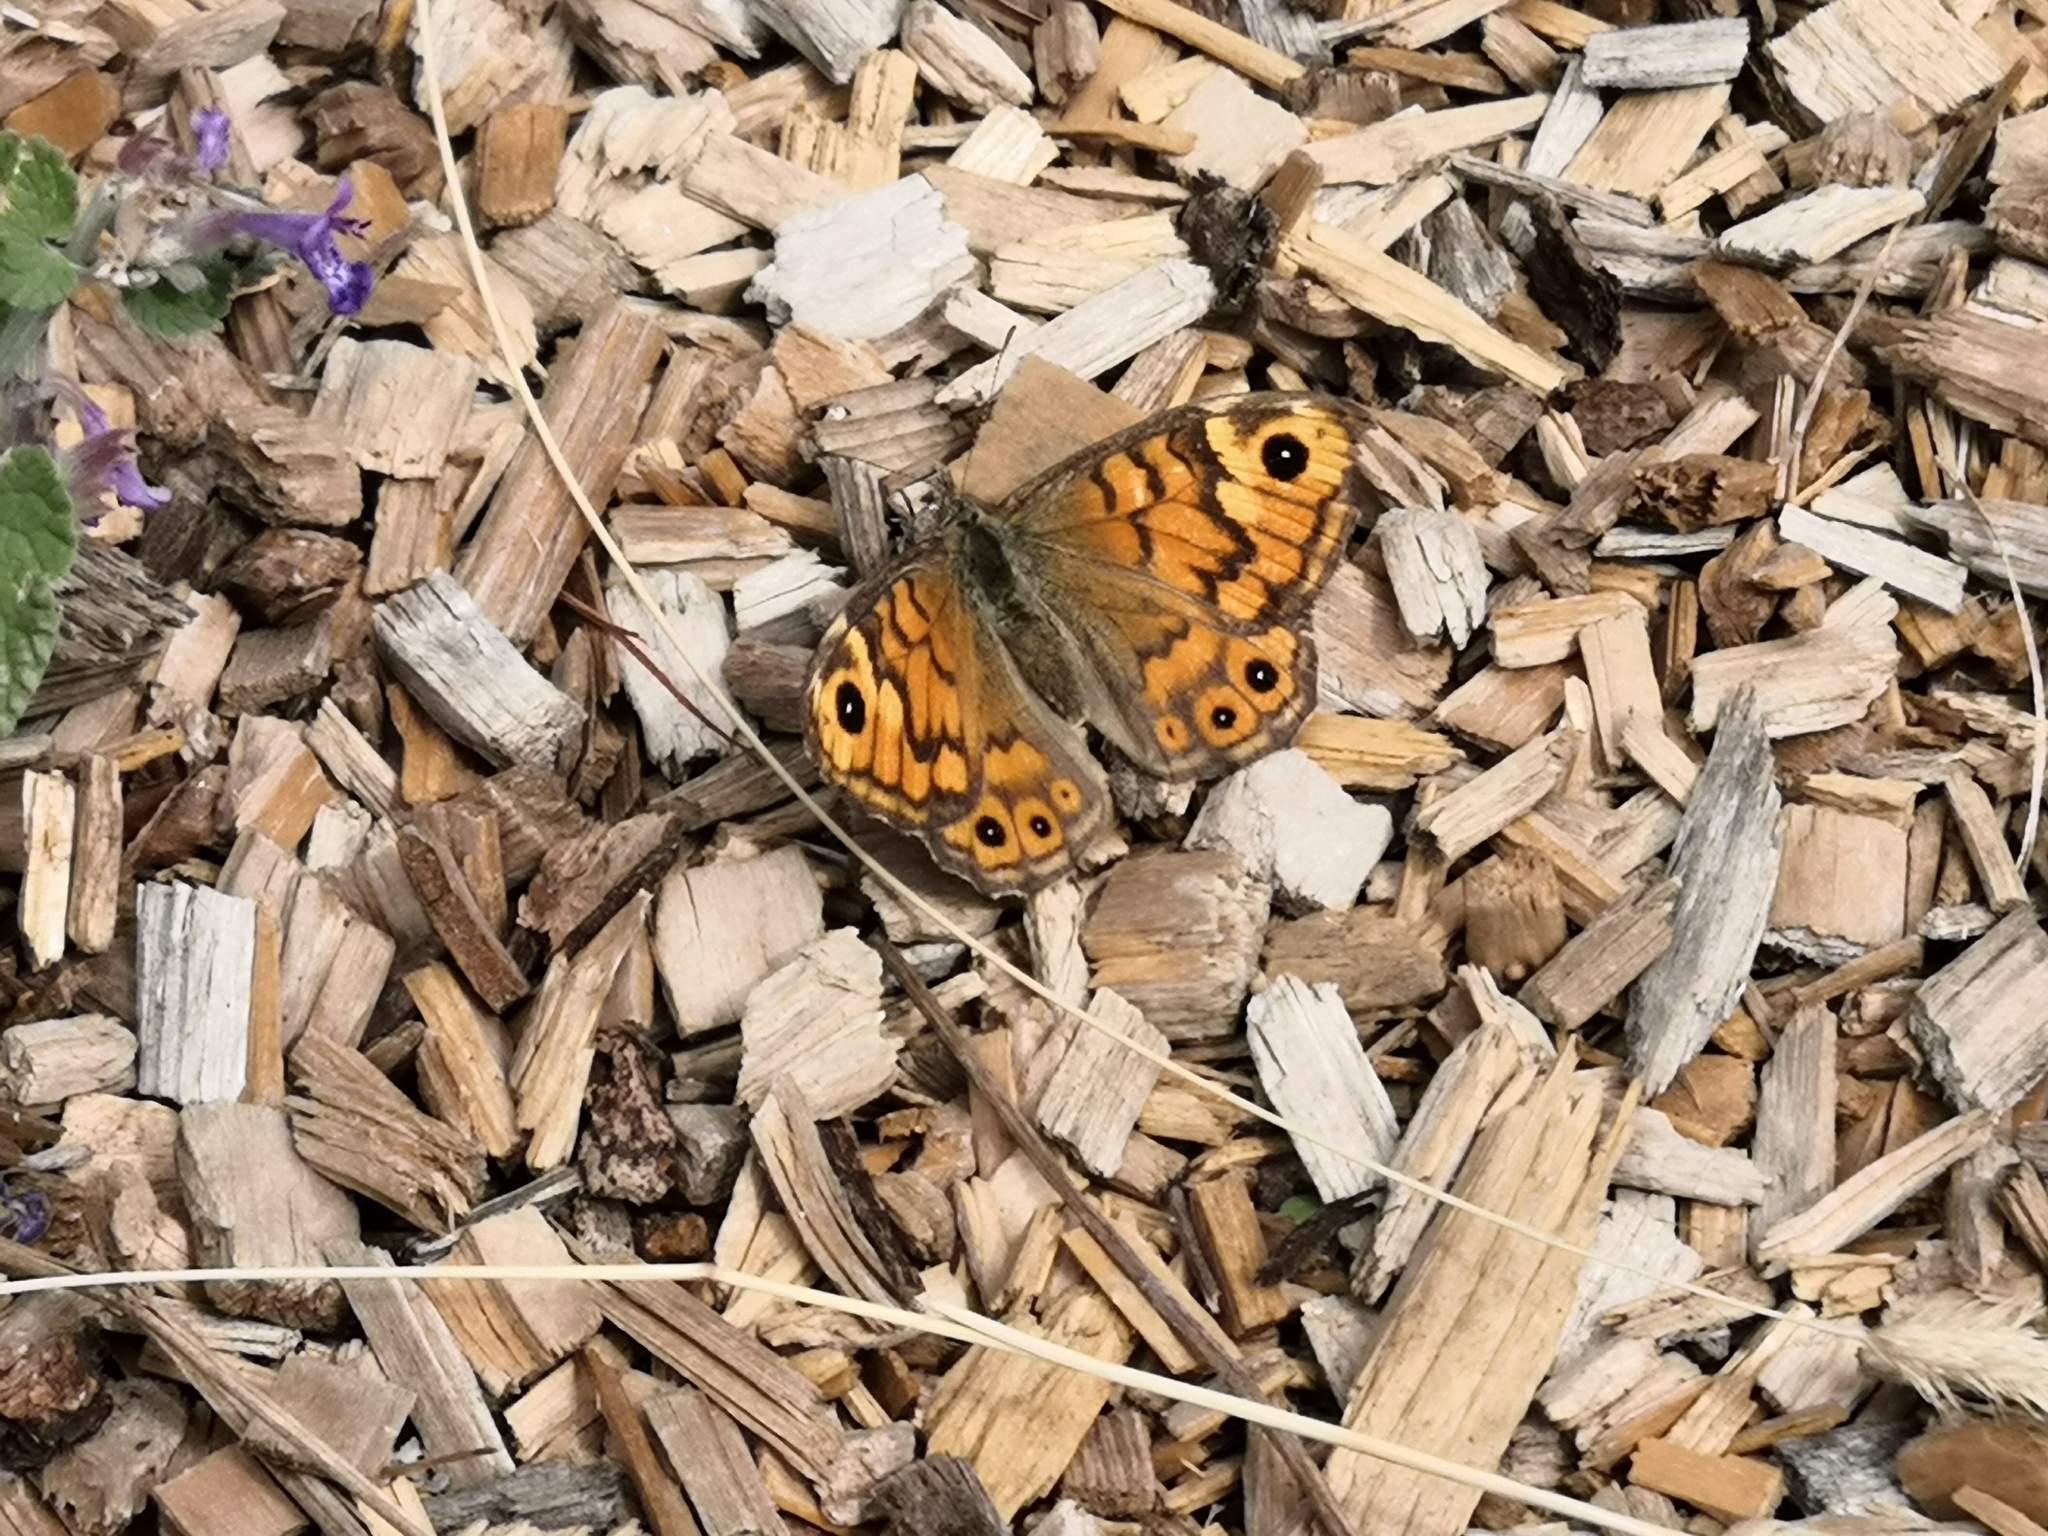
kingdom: Animalia
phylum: Arthropoda
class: Insecta
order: Lepidoptera
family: Nymphalidae
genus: Pararge
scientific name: Pararge Lasiommata megera
